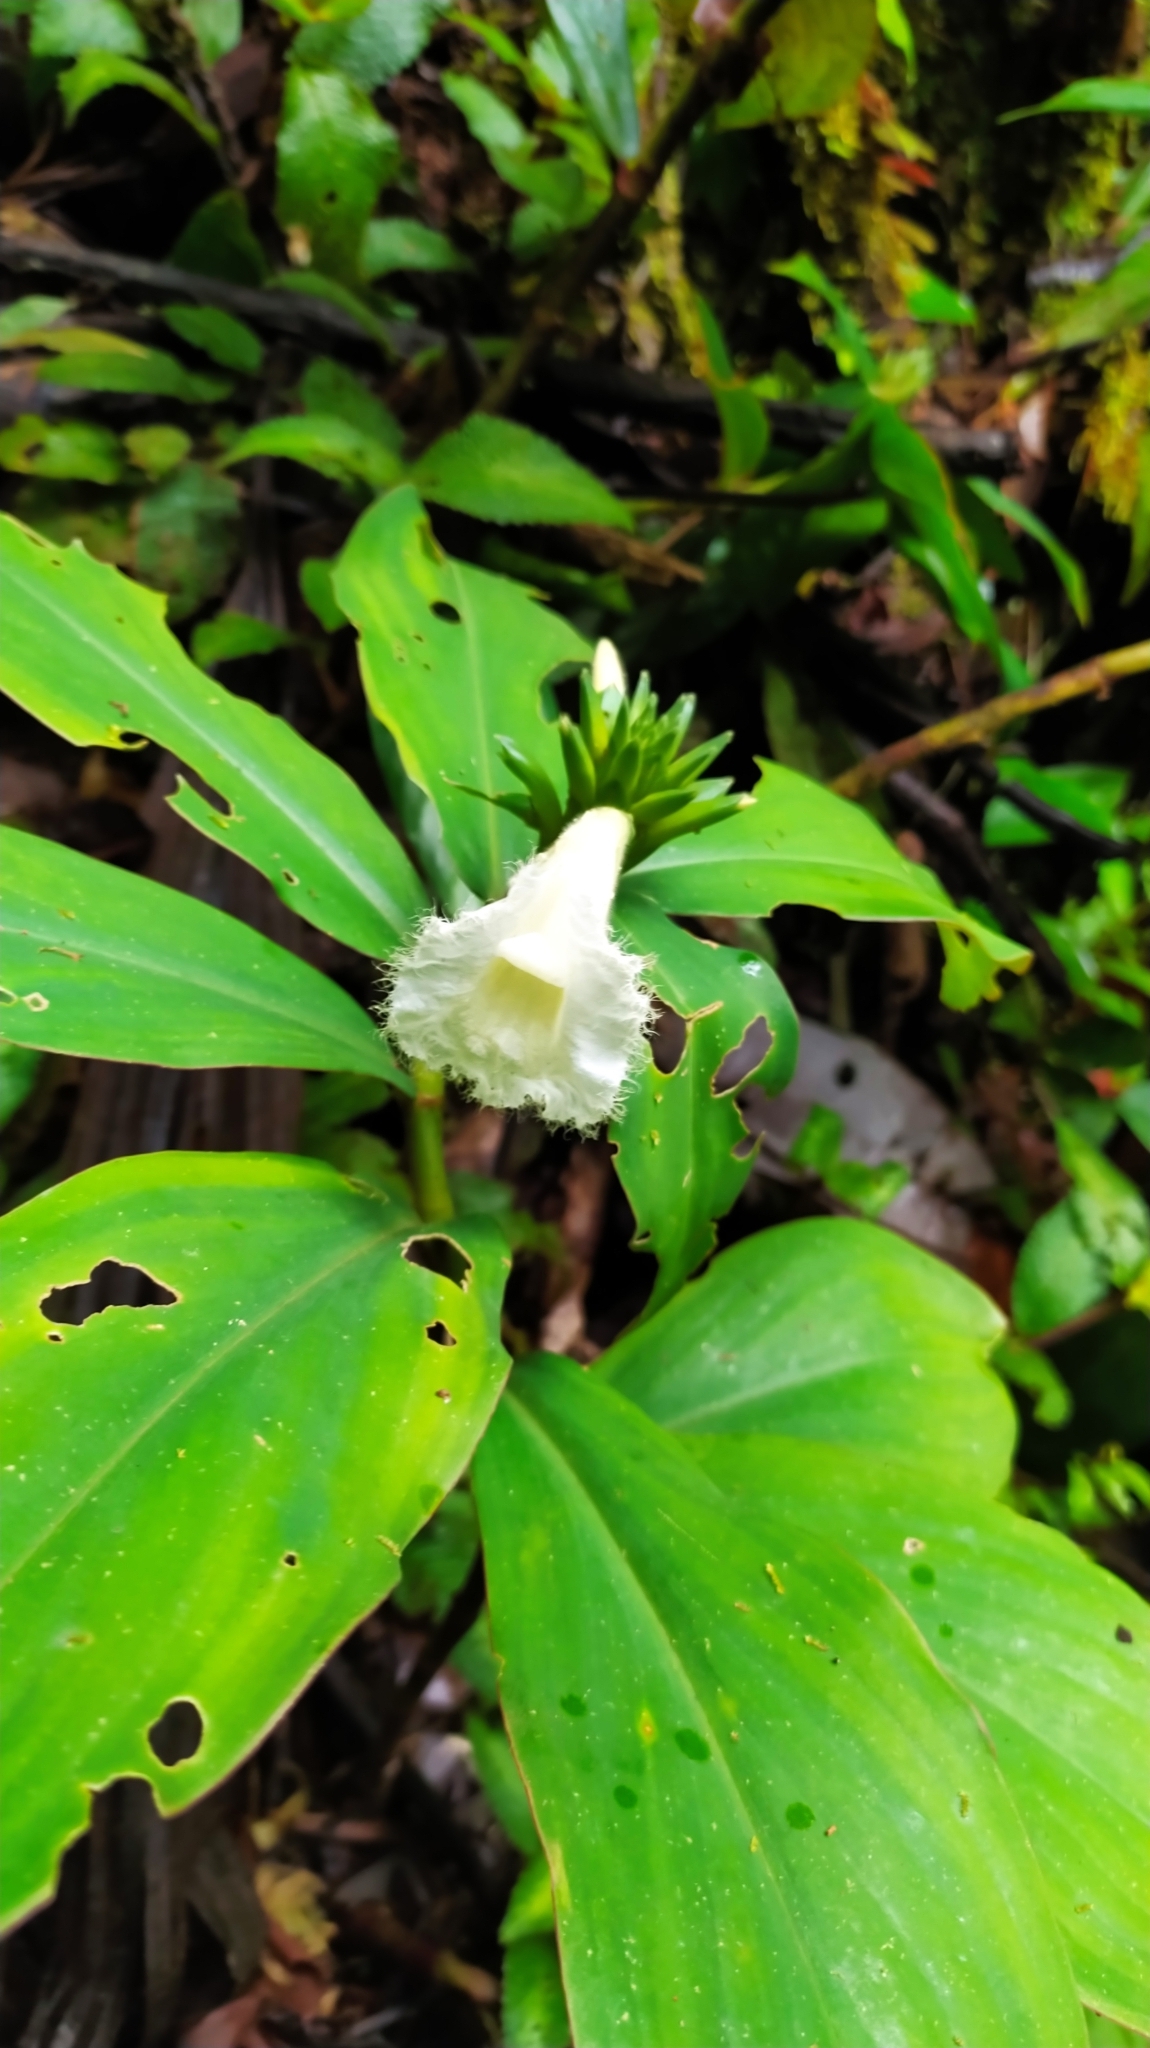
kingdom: Plantae
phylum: Tracheophyta
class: Liliopsida
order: Zingiberales
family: Costaceae
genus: Chamaecostus
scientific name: Chamaecostus congestiflorus
